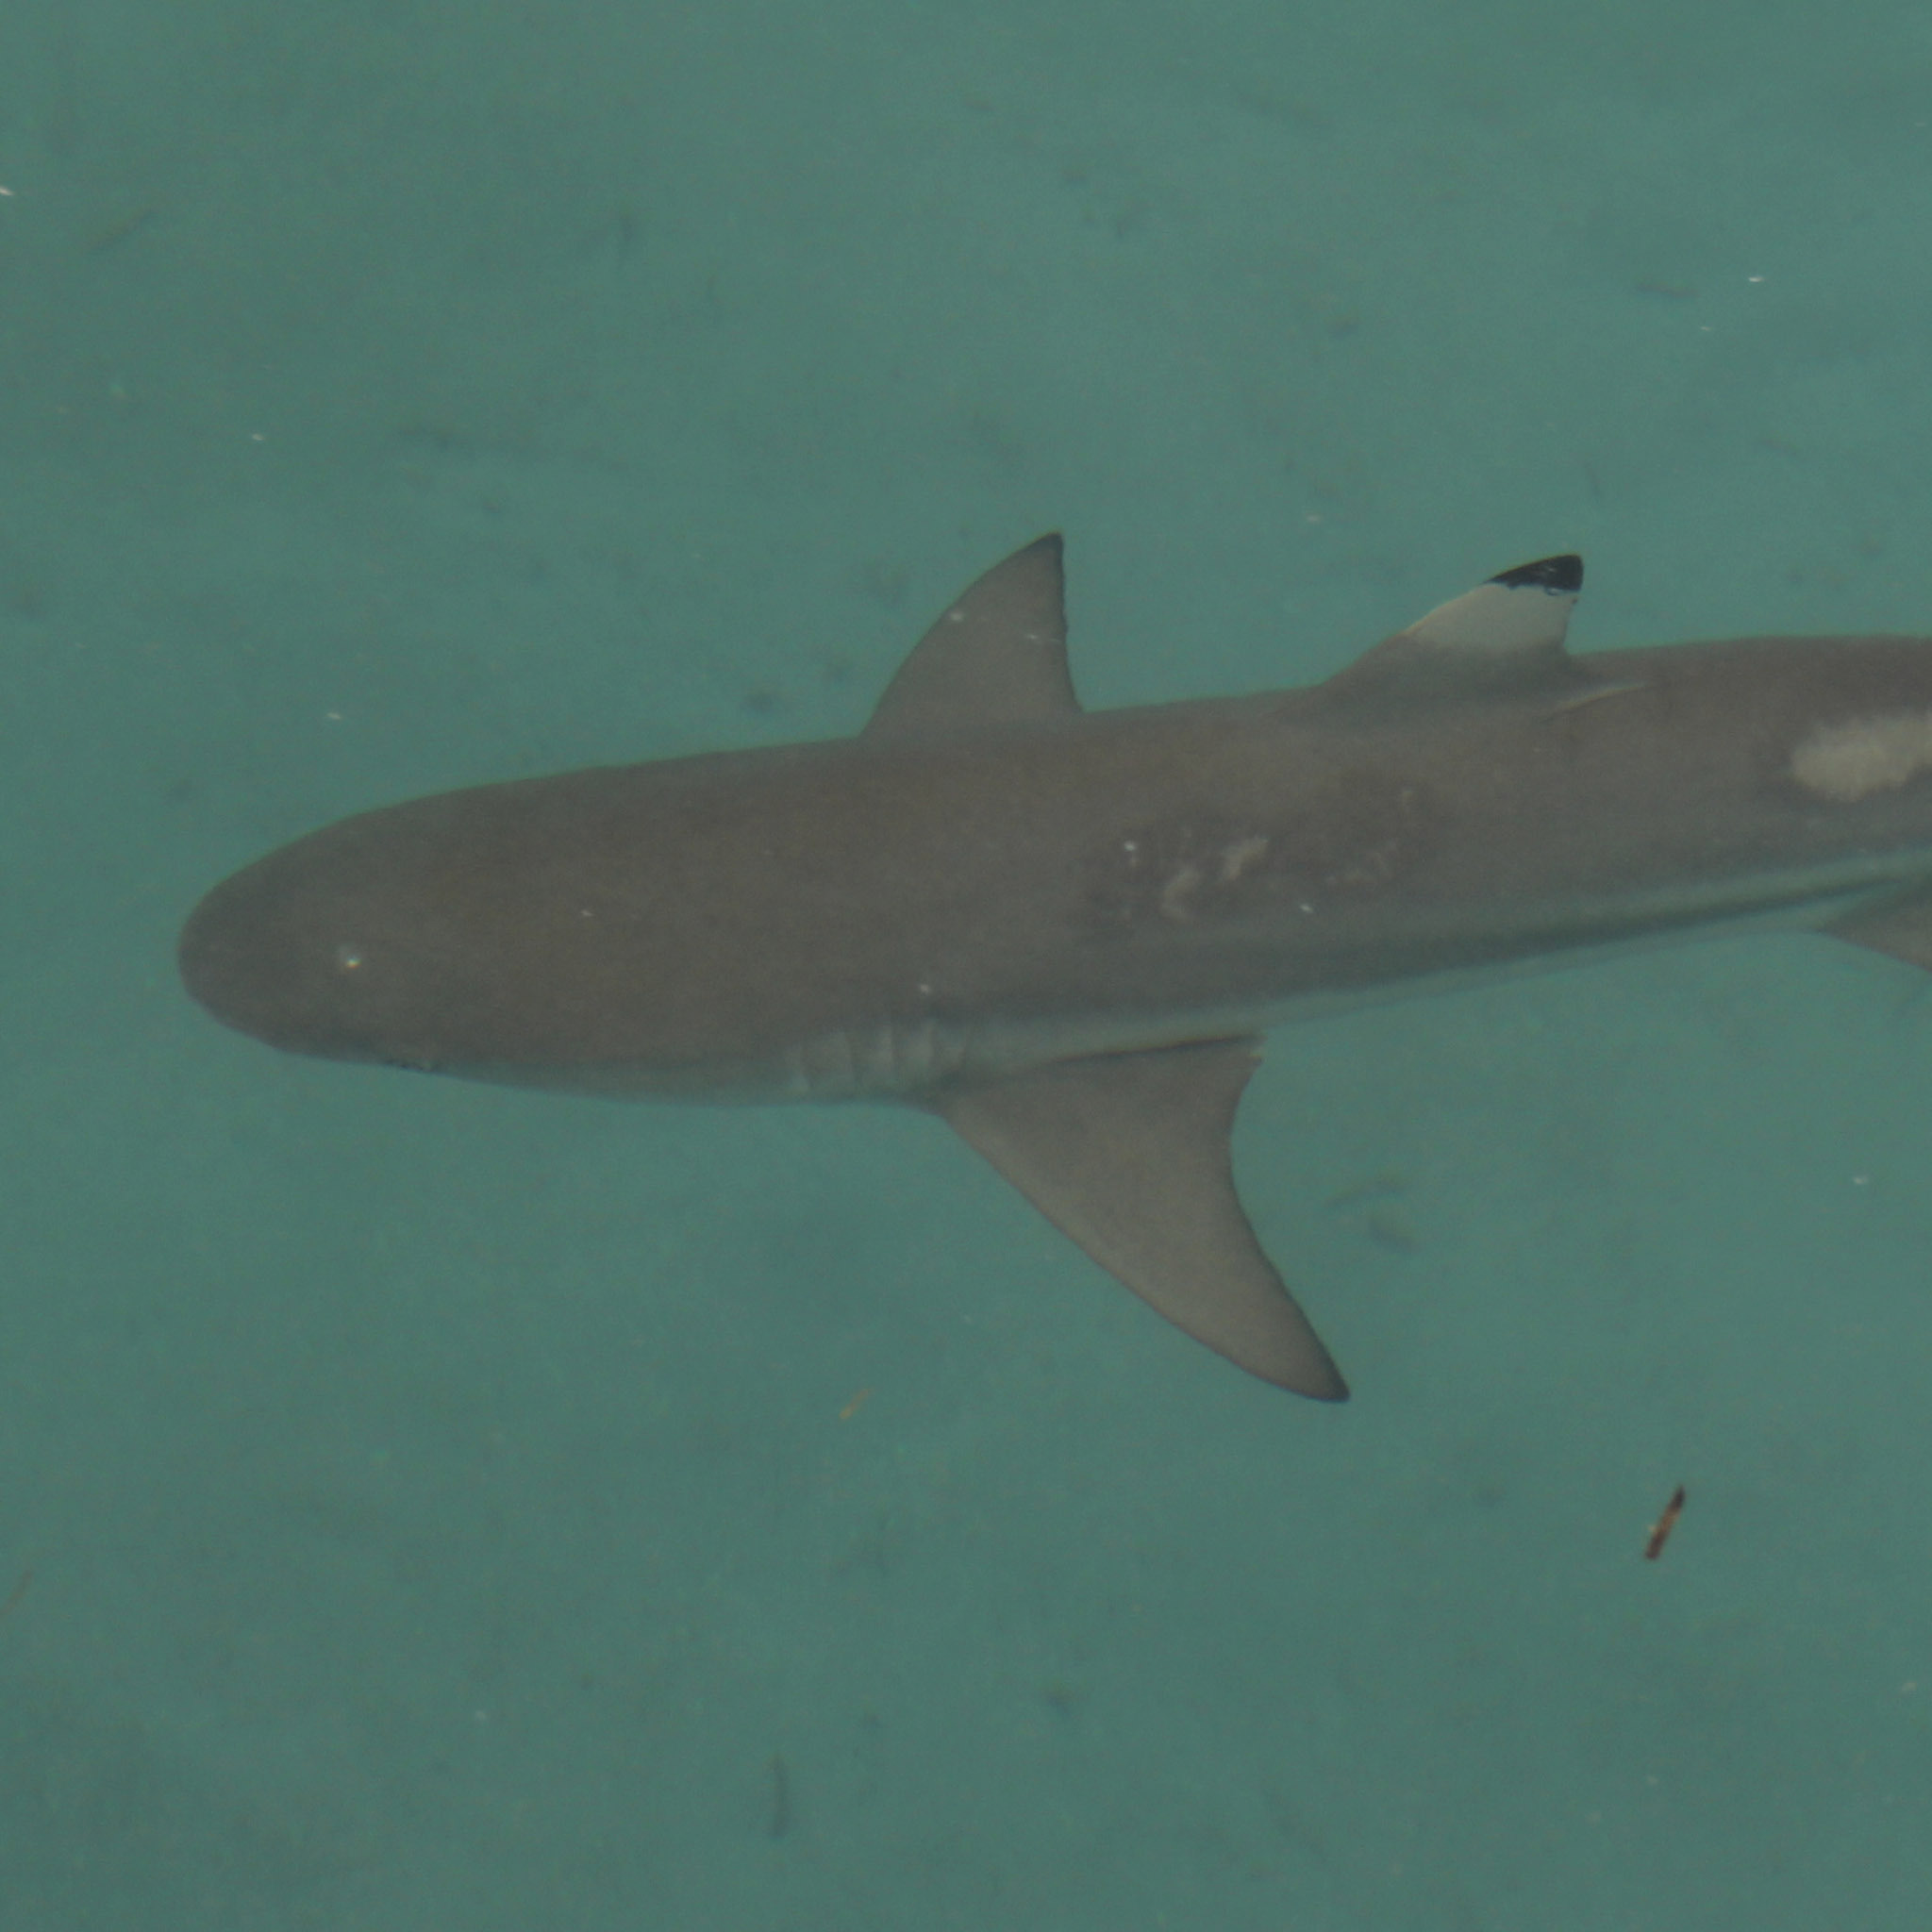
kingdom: Animalia
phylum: Chordata
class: Elasmobranchii
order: Carcharhiniformes
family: Carcharhinidae
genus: Carcharhinus
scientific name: Carcharhinus melanopterus
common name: Blacktip reef shark
